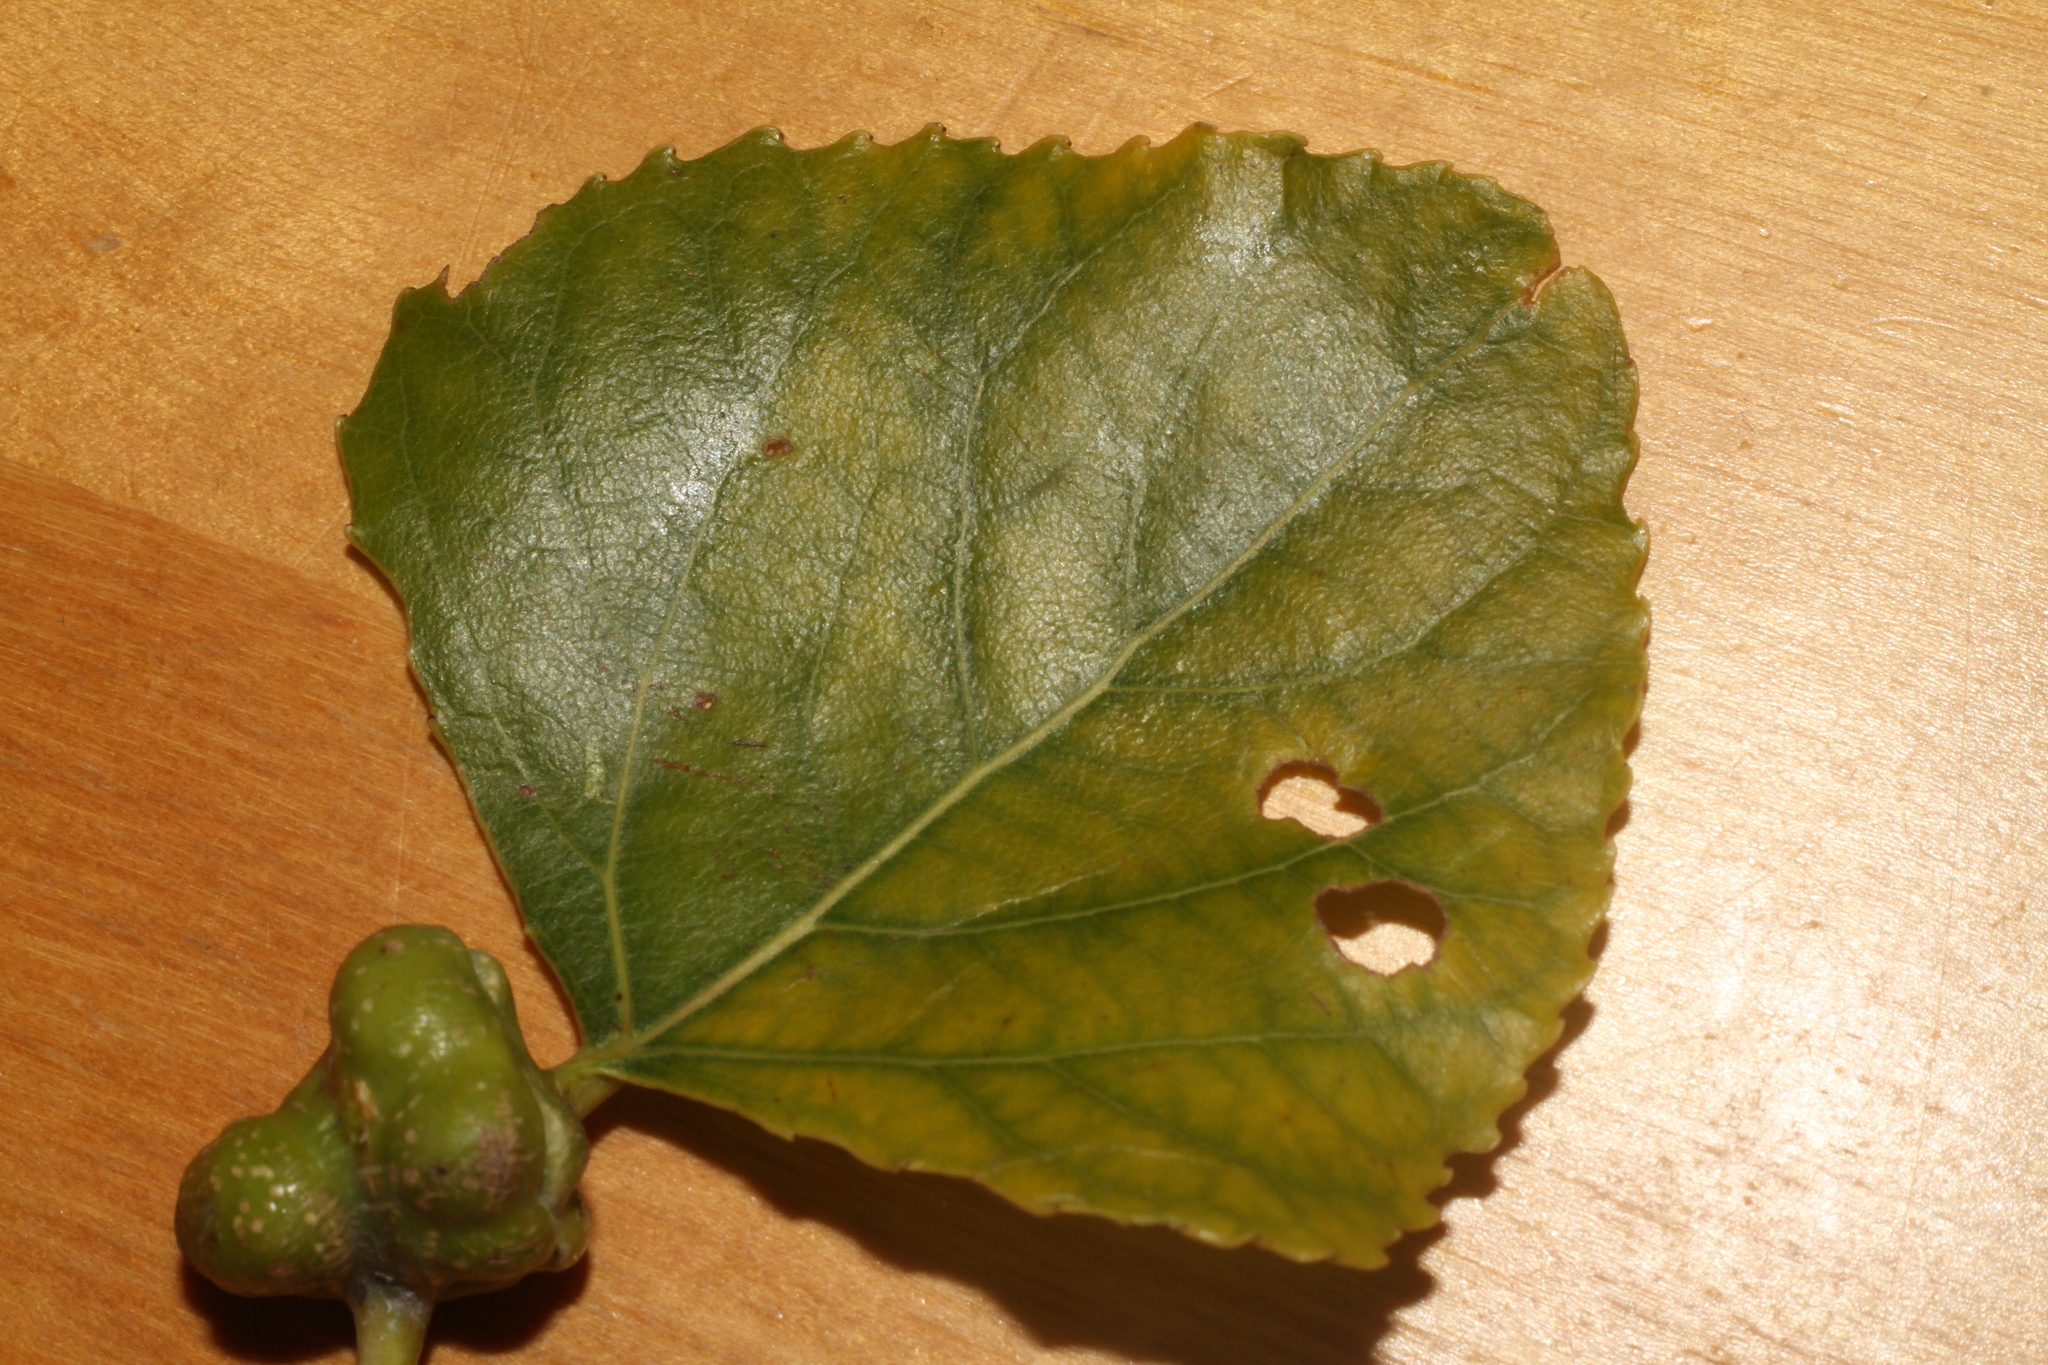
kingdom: Animalia
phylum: Arthropoda
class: Insecta
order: Hemiptera
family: Aphididae
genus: Pemphigus
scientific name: Pemphigus spyrothecae
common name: Aphid
